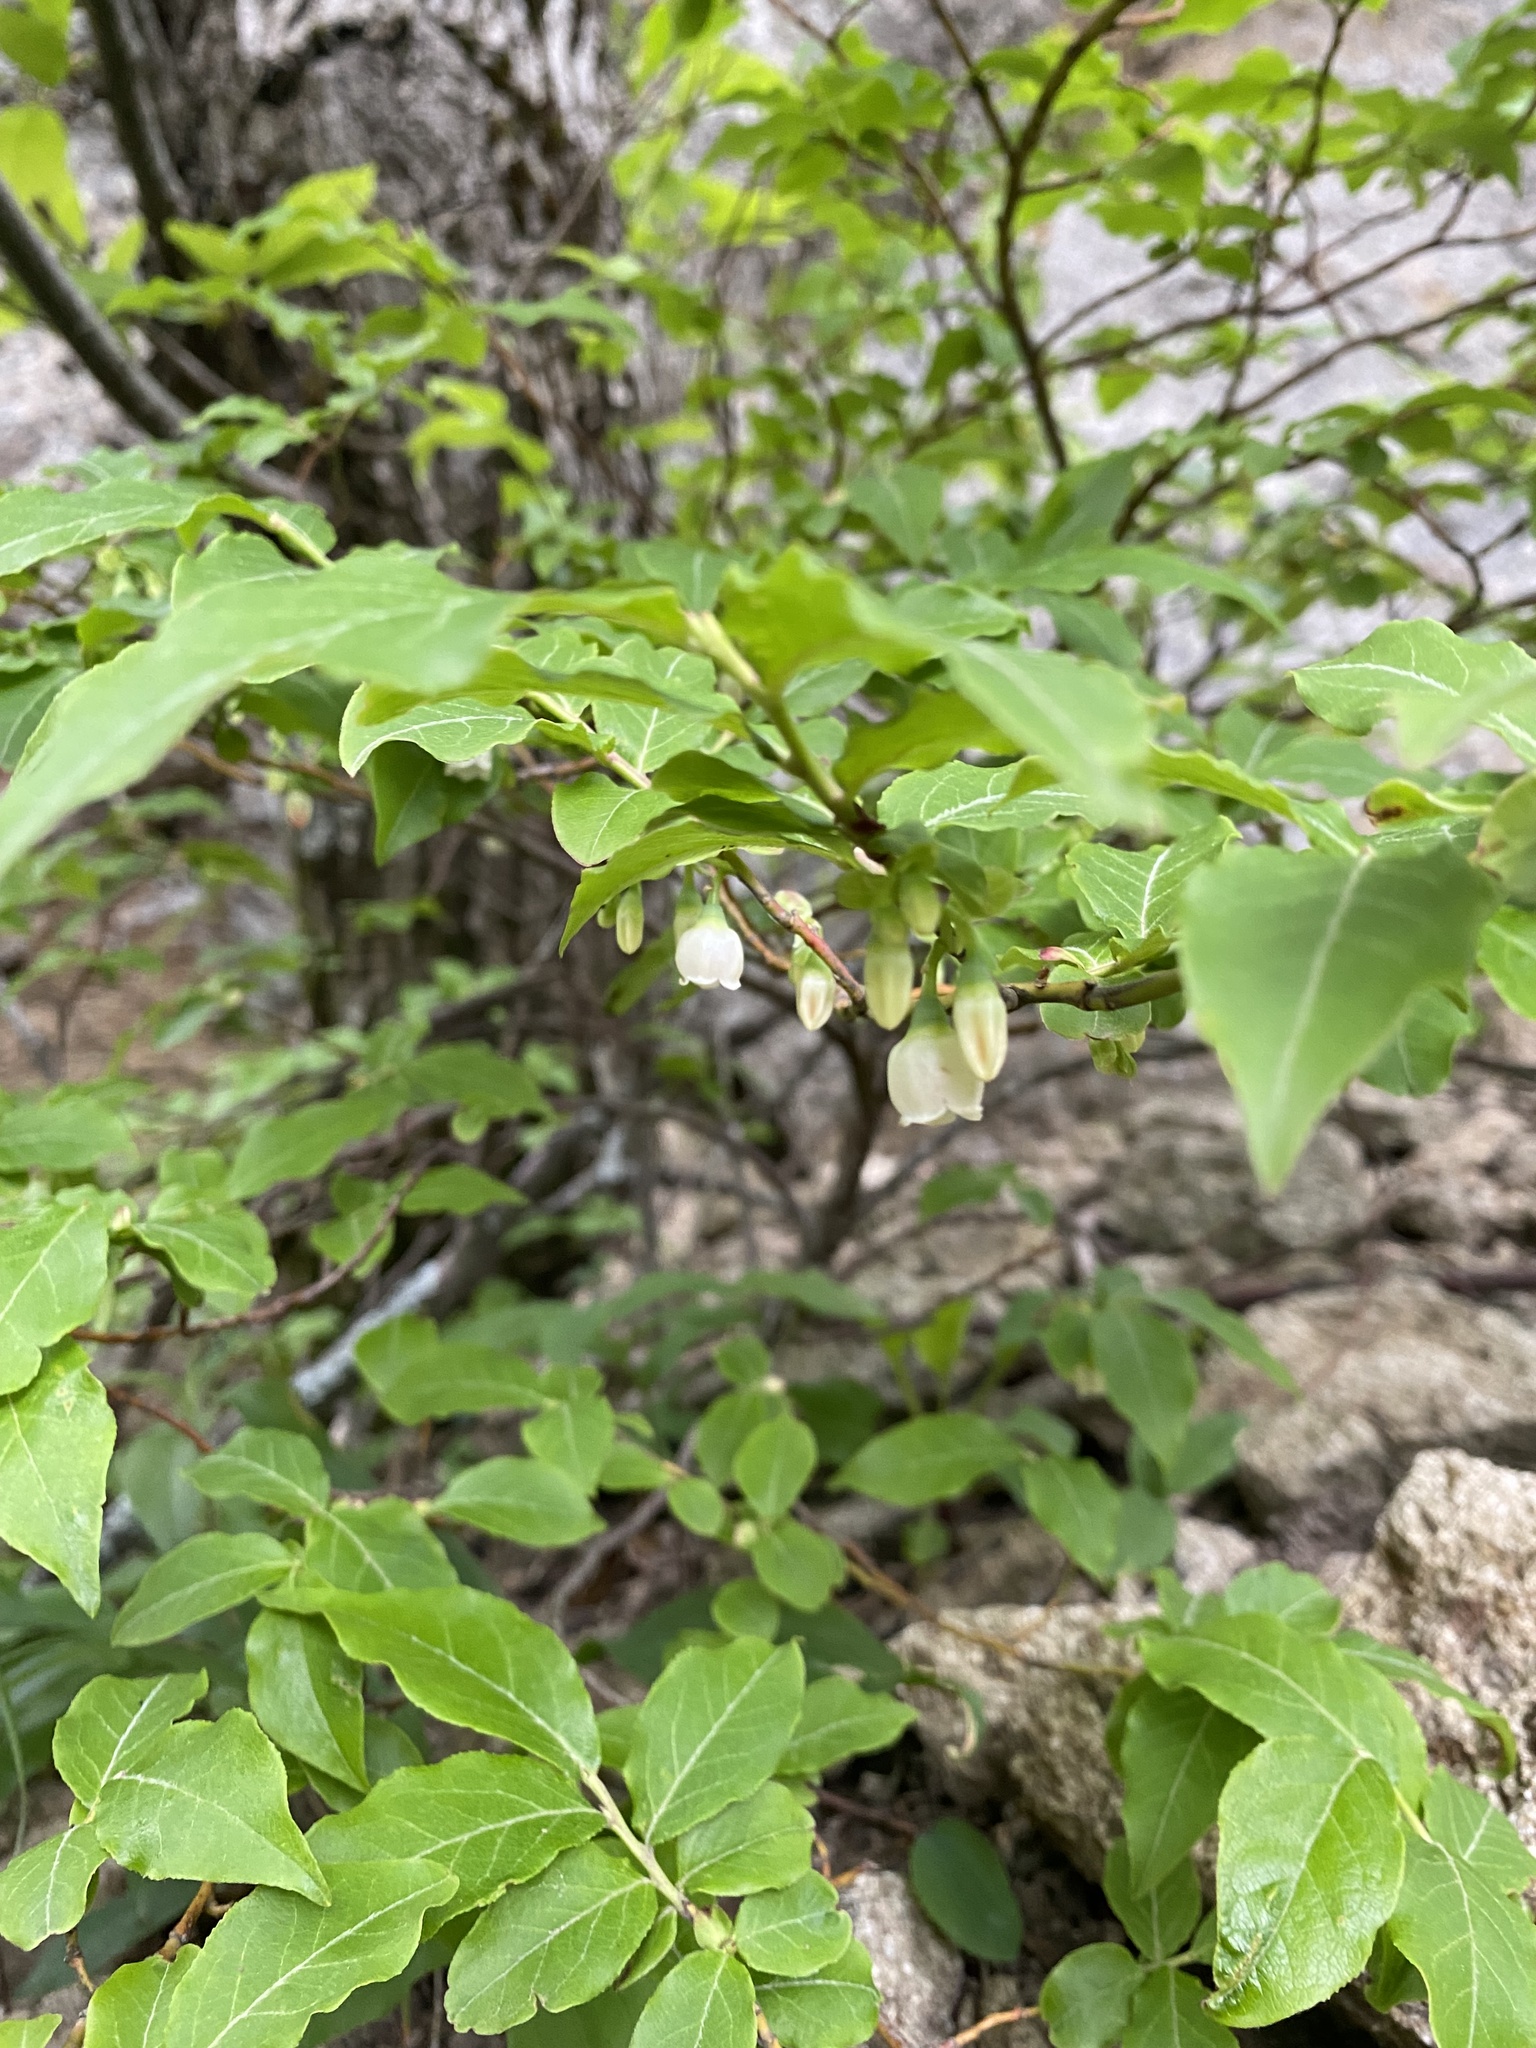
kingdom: Plantae
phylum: Tracheophyta
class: Magnoliopsida
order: Ericales
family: Ericaceae
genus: Vaccinium
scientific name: Vaccinium arctostaphylos
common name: Caucasian whortleberry
